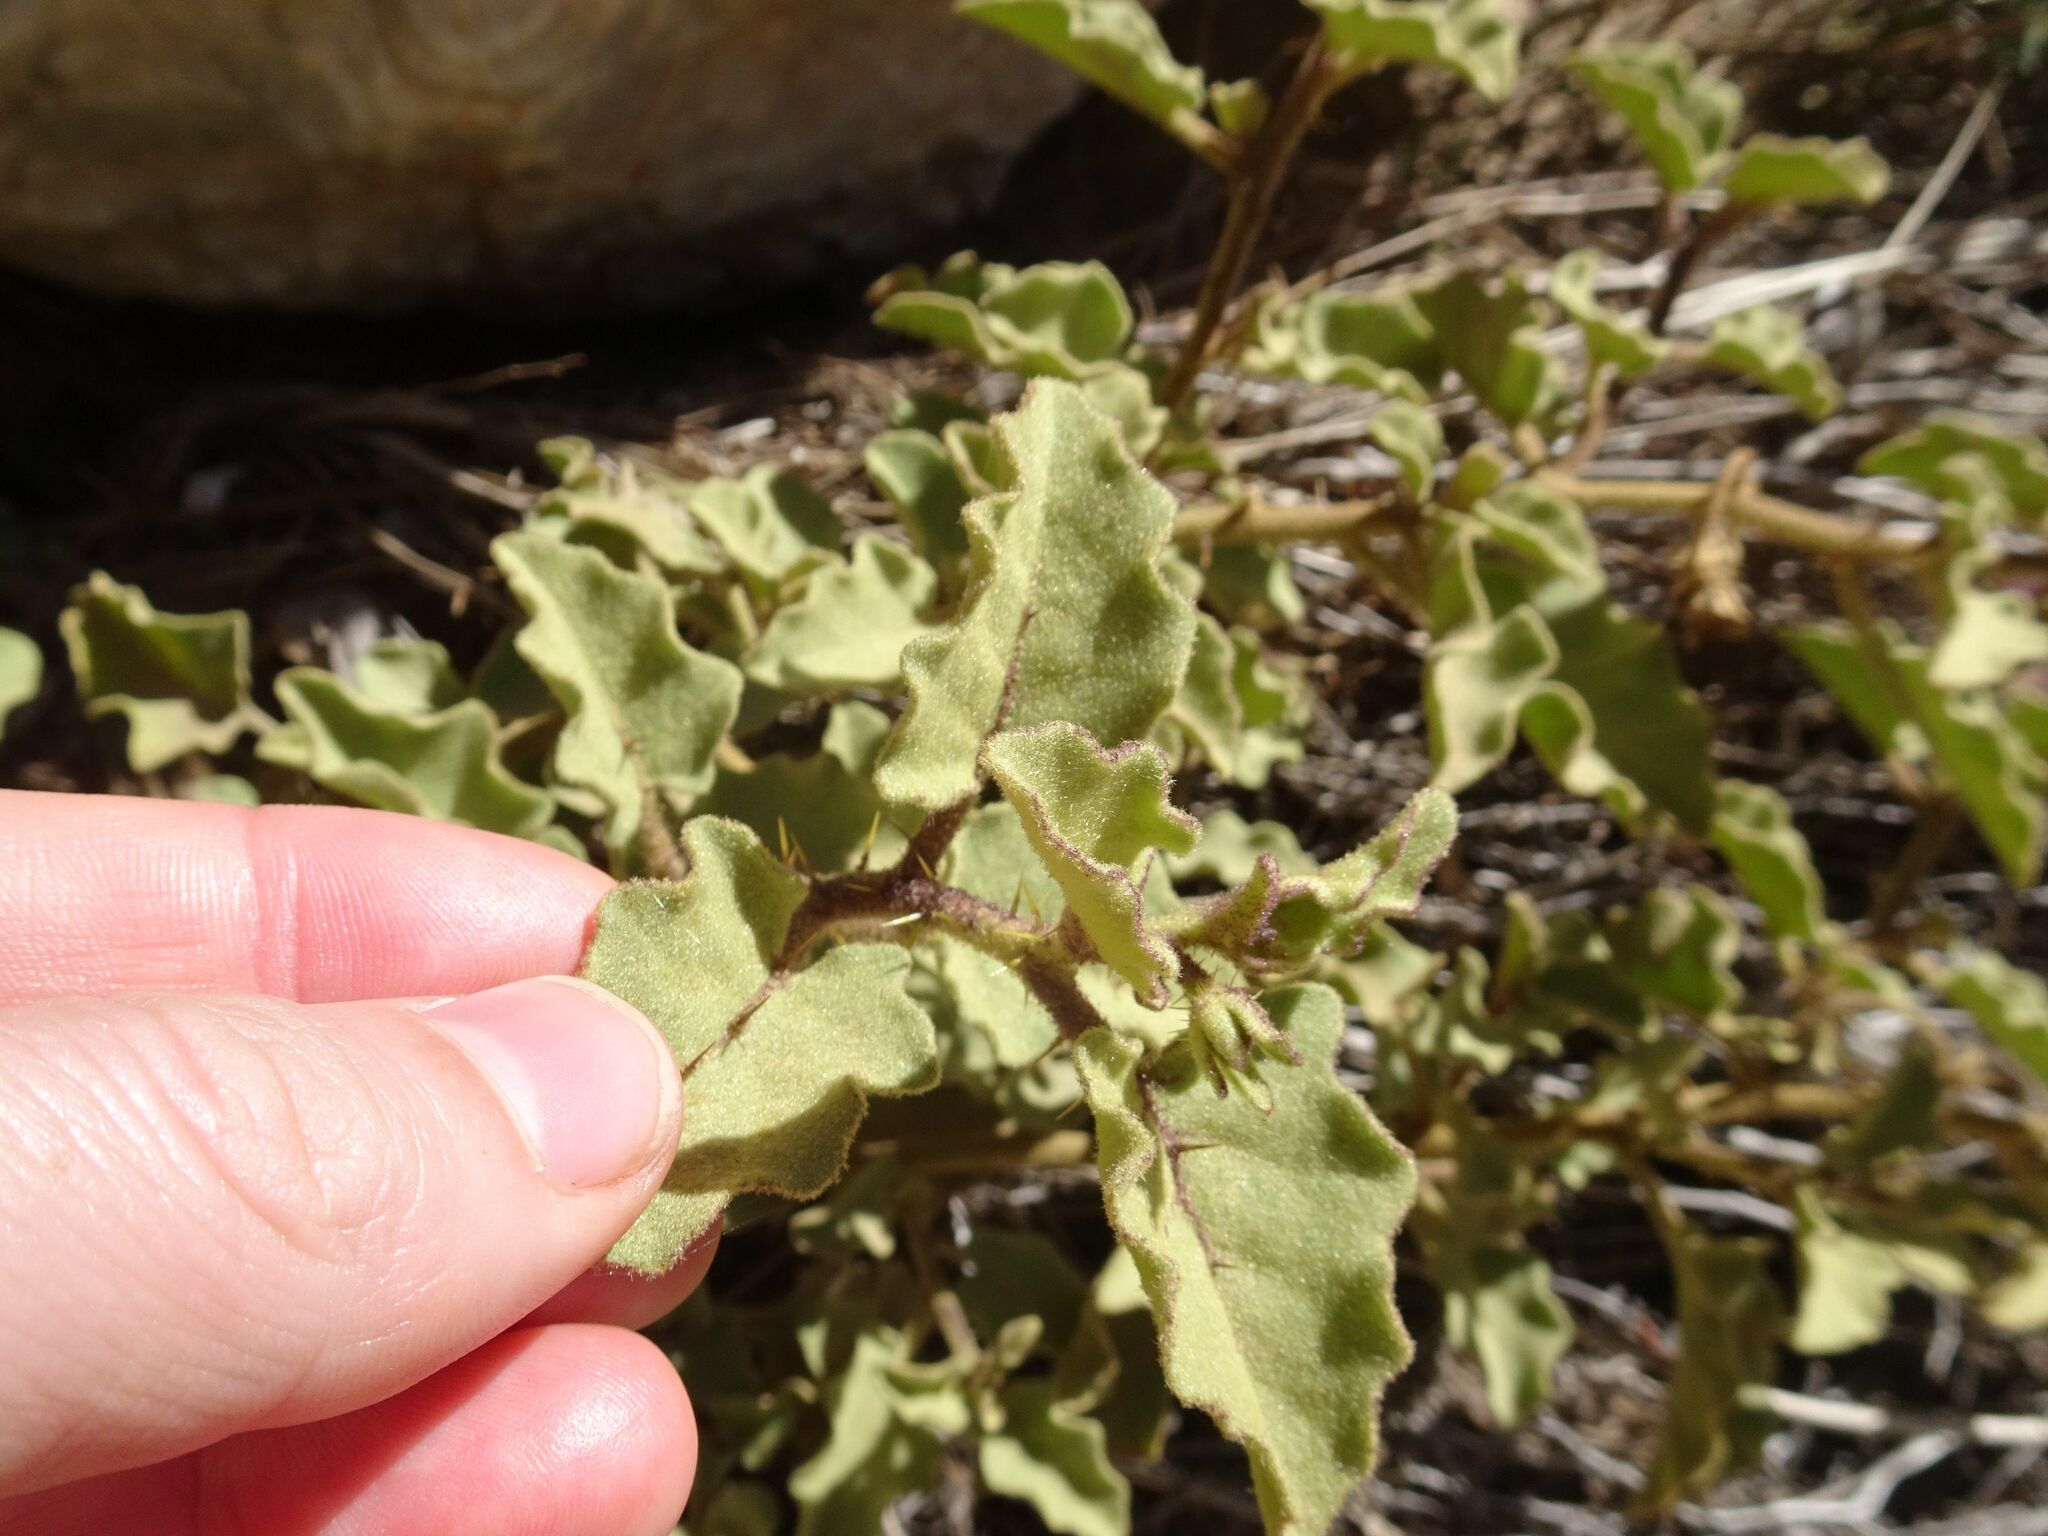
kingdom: Plantae
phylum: Tracheophyta
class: Magnoliopsida
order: Solanales
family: Solanaceae
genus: Solanum
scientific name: Solanum tomentosum
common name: Wild aubergine
